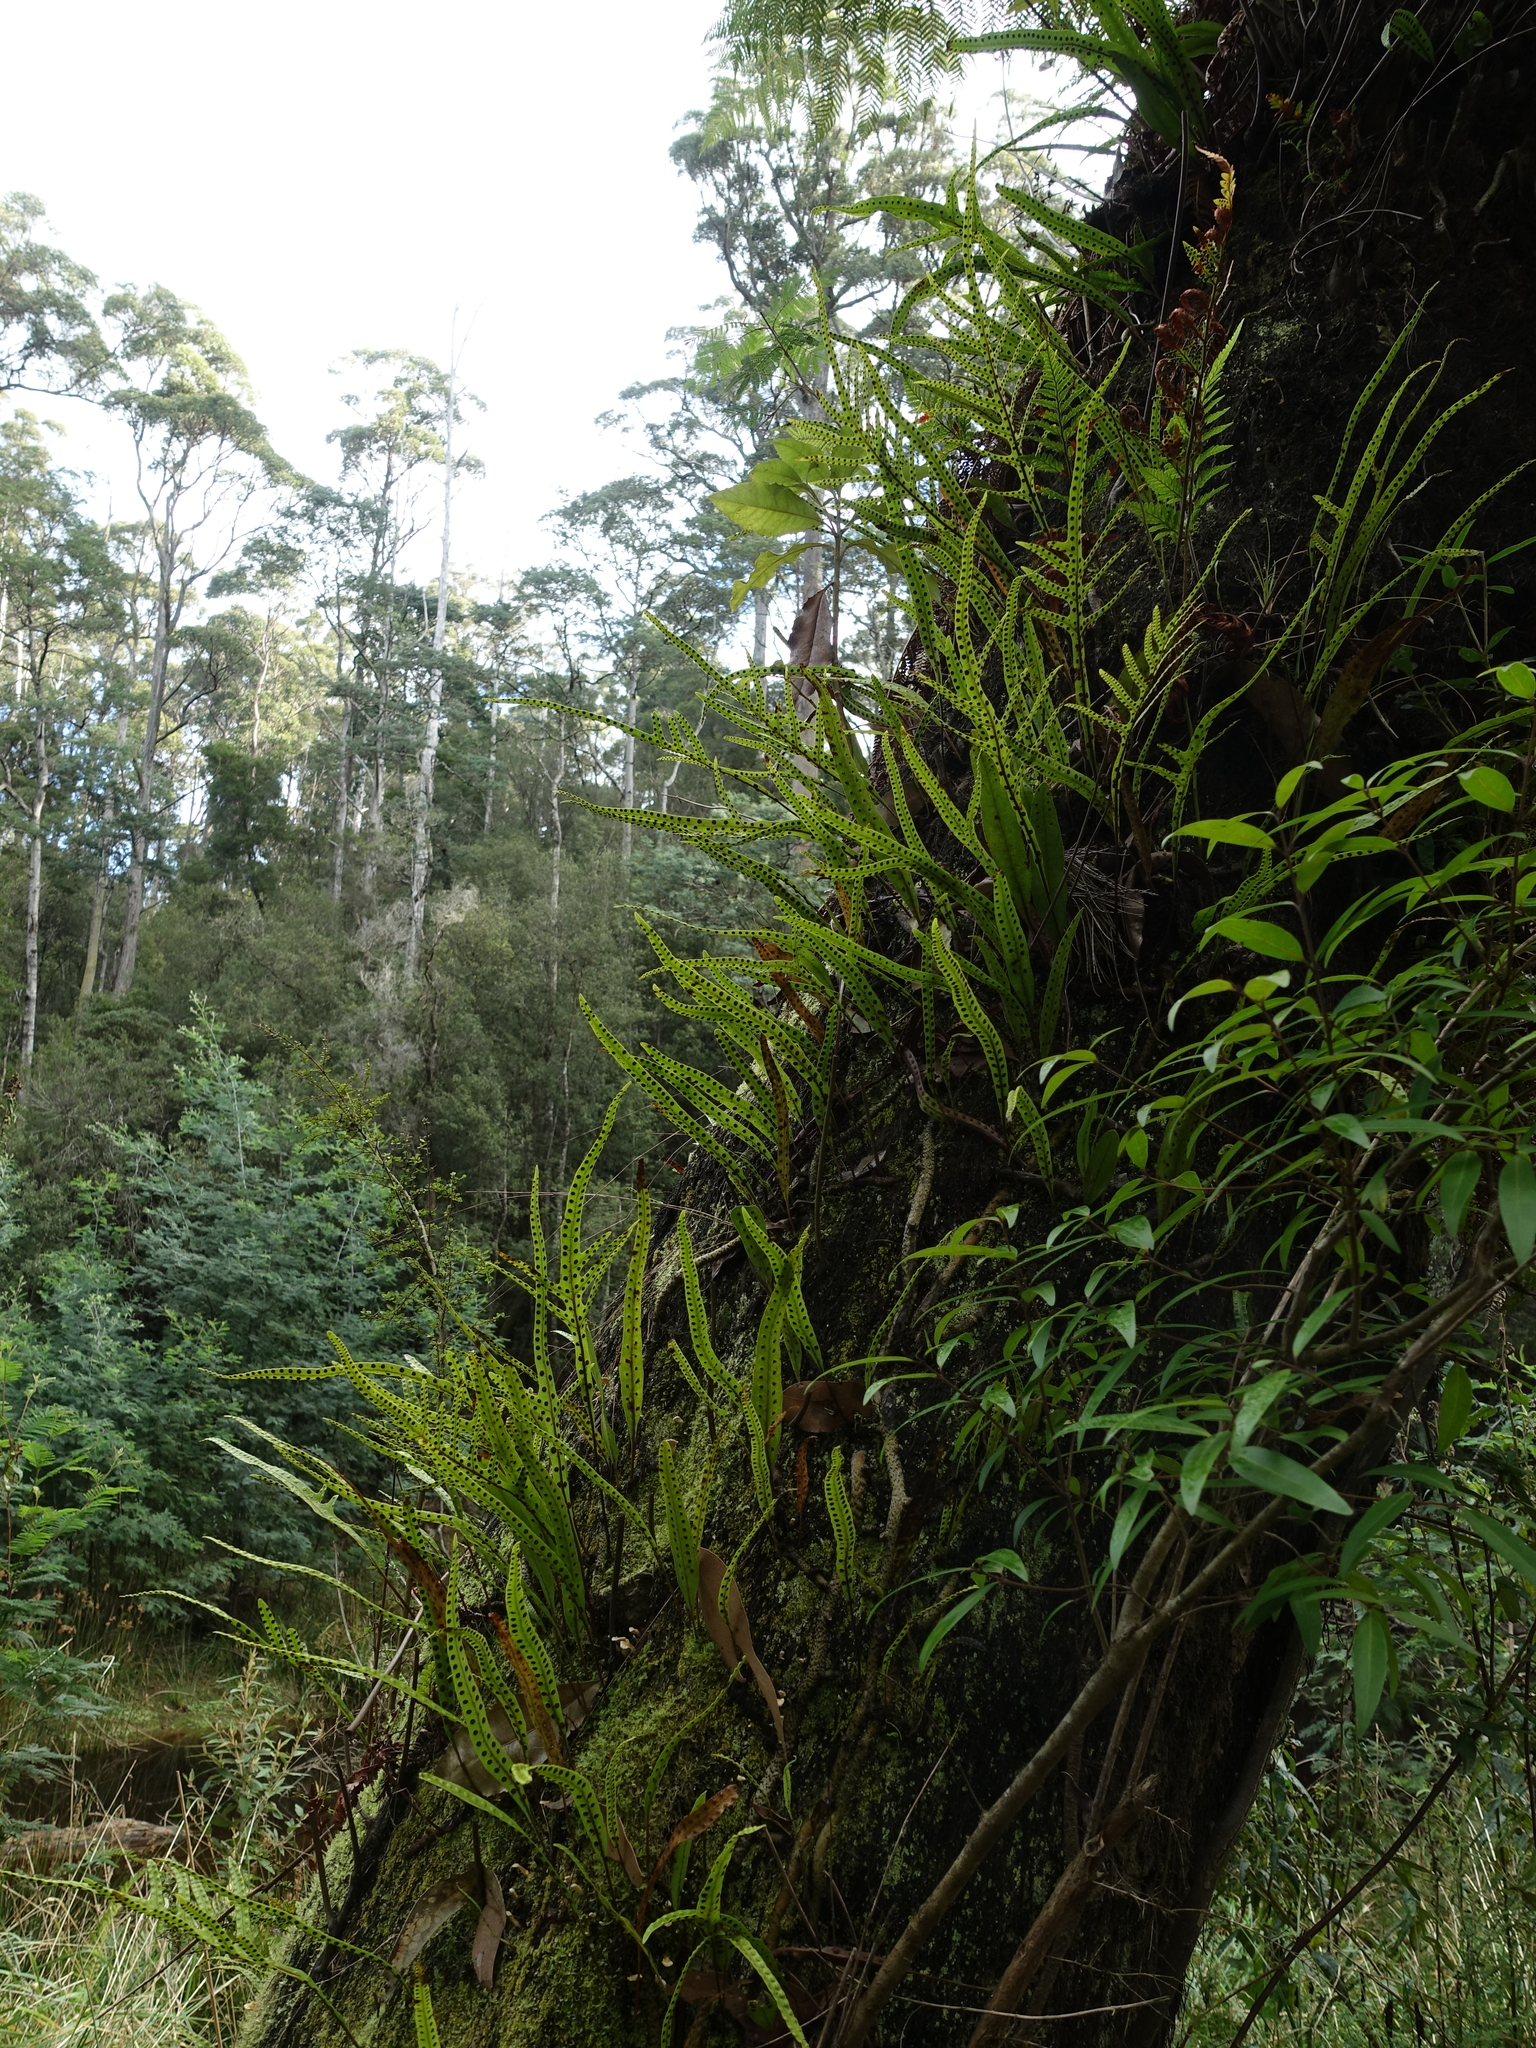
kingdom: Plantae
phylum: Tracheophyta
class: Polypodiopsida
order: Polypodiales
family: Polypodiaceae
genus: Lecanopteris
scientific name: Lecanopteris pustulata
